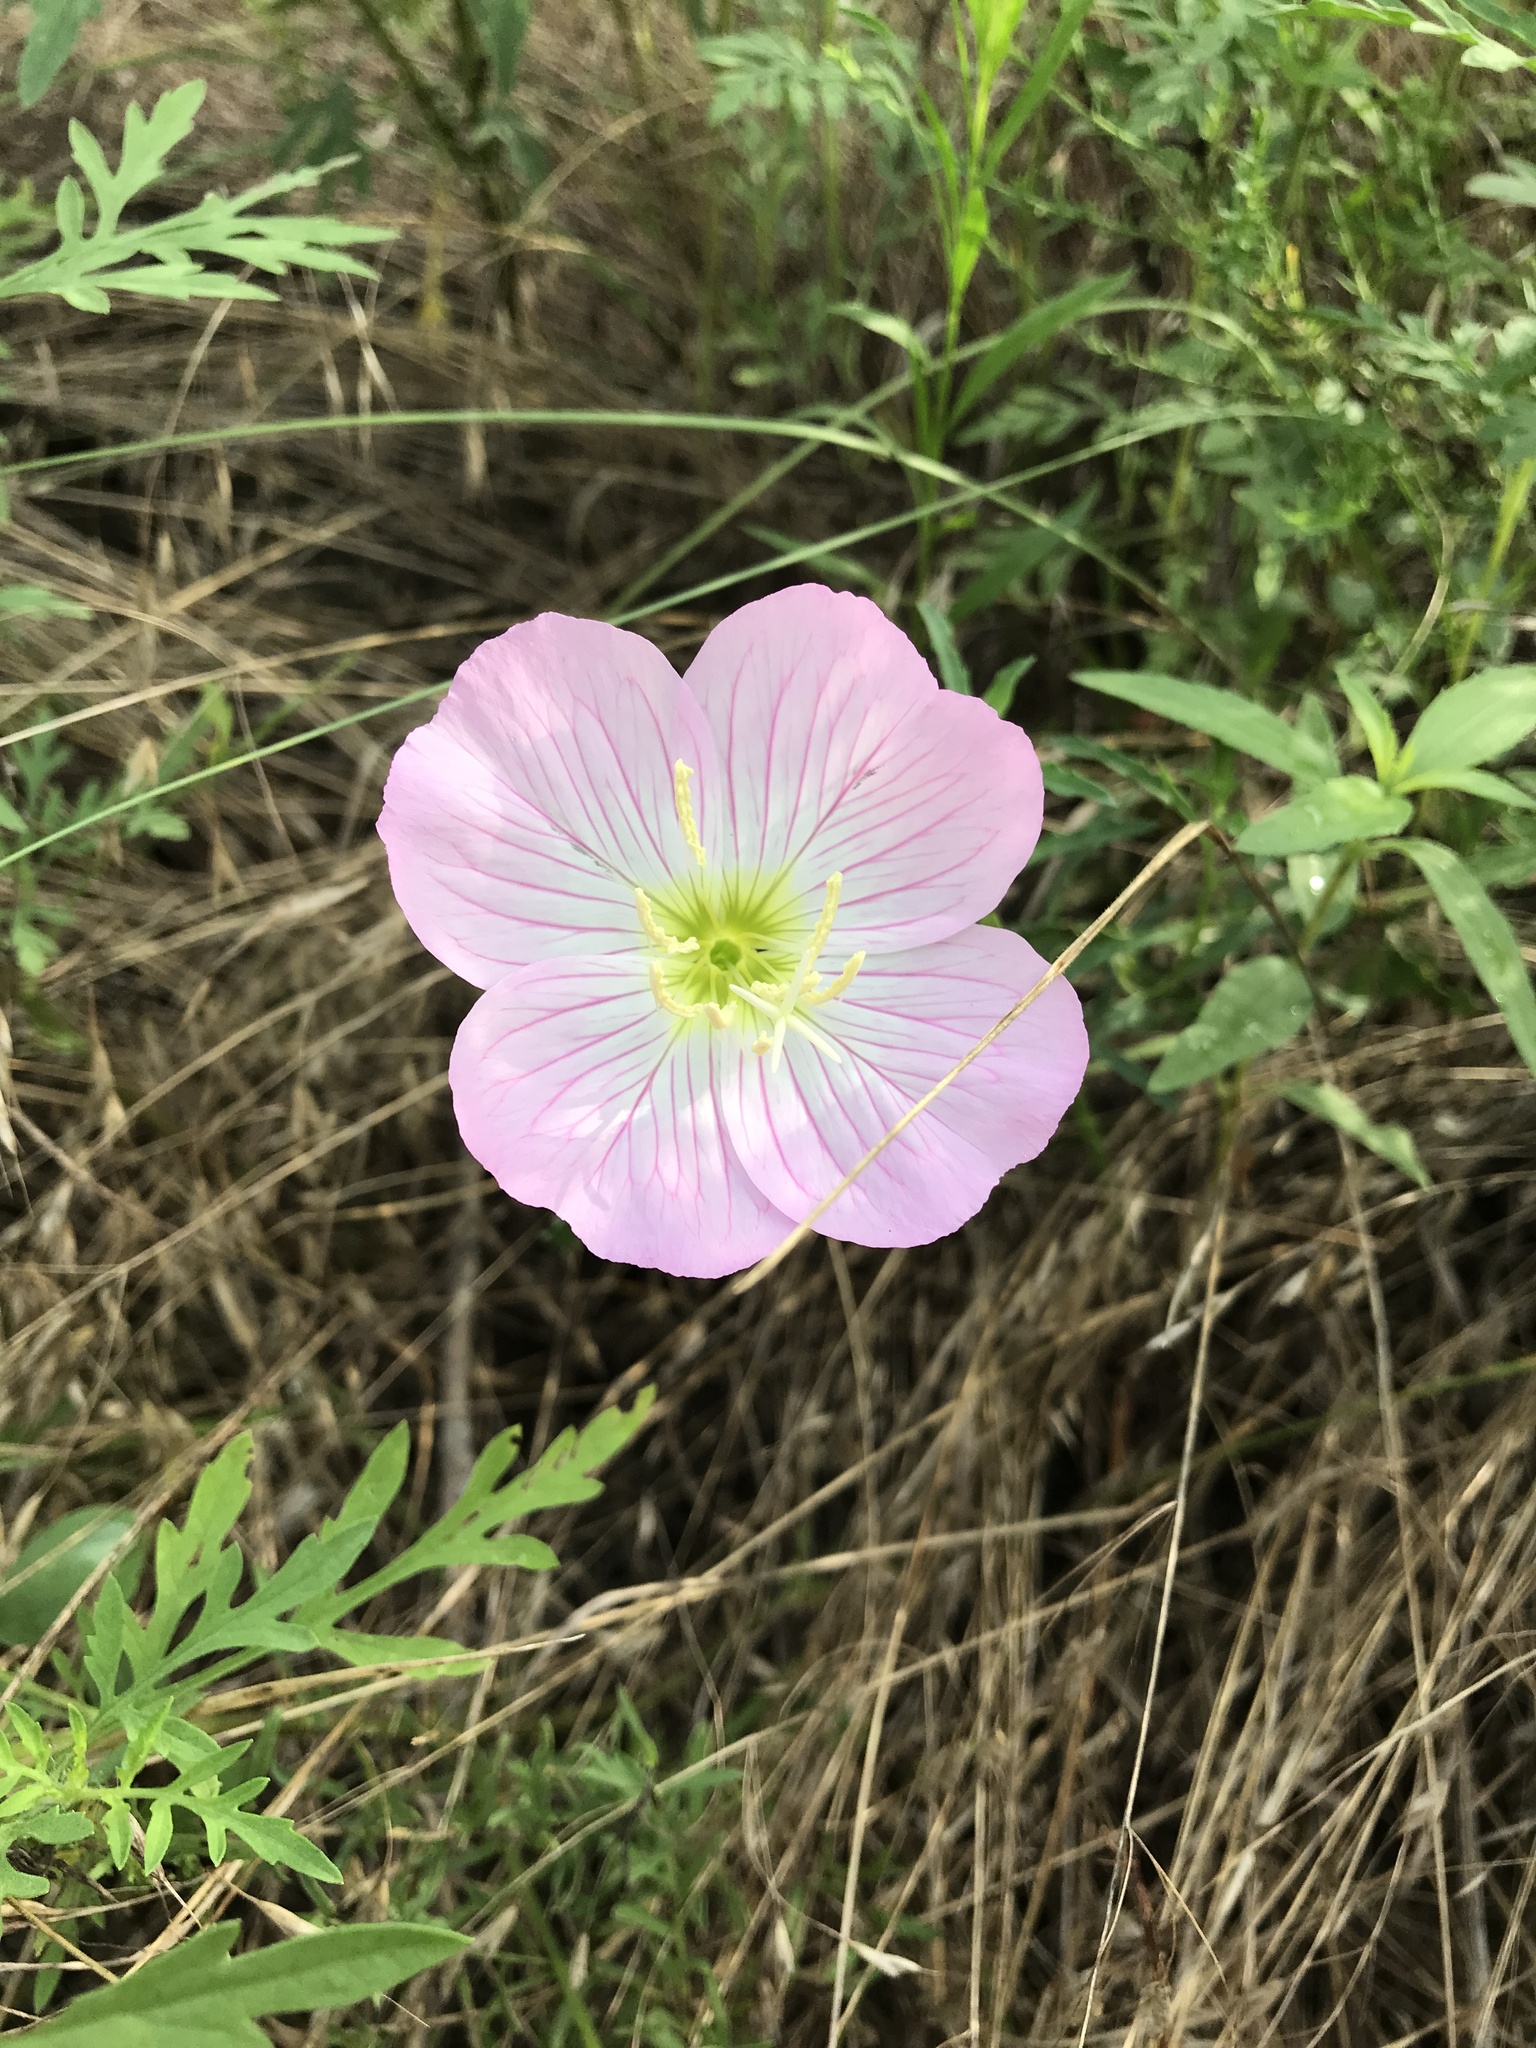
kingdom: Plantae
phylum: Tracheophyta
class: Magnoliopsida
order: Myrtales
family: Onagraceae
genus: Oenothera
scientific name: Oenothera speciosa
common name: White evening-primrose
